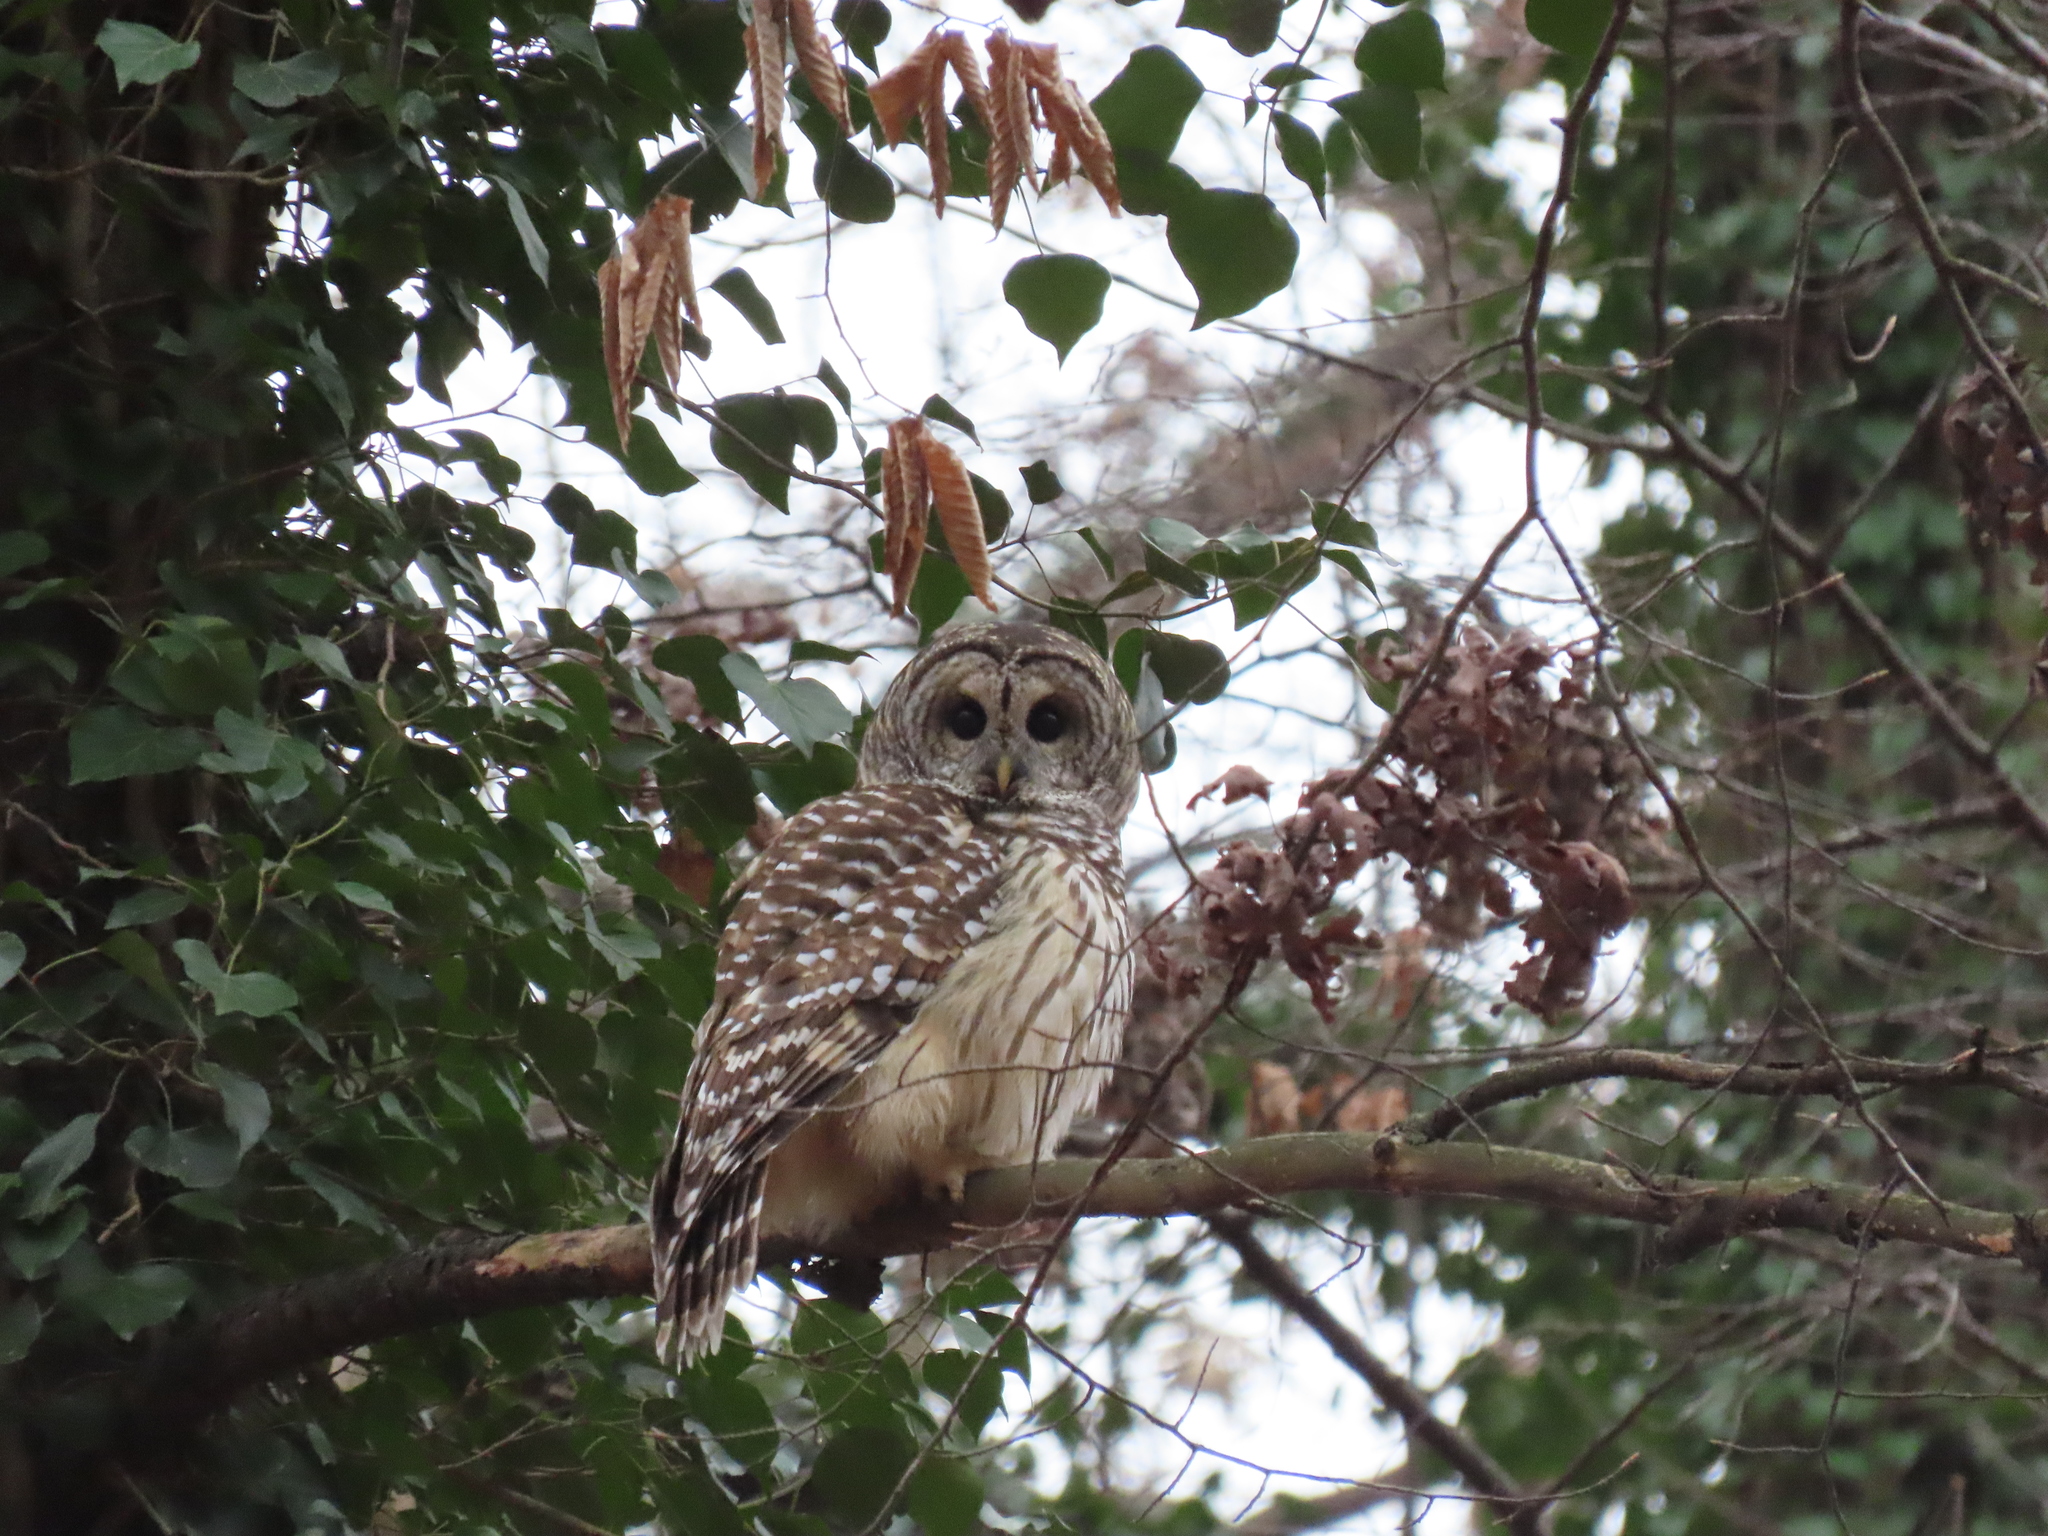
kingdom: Animalia
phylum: Chordata
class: Aves
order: Strigiformes
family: Strigidae
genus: Strix
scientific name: Strix varia
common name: Barred owl
